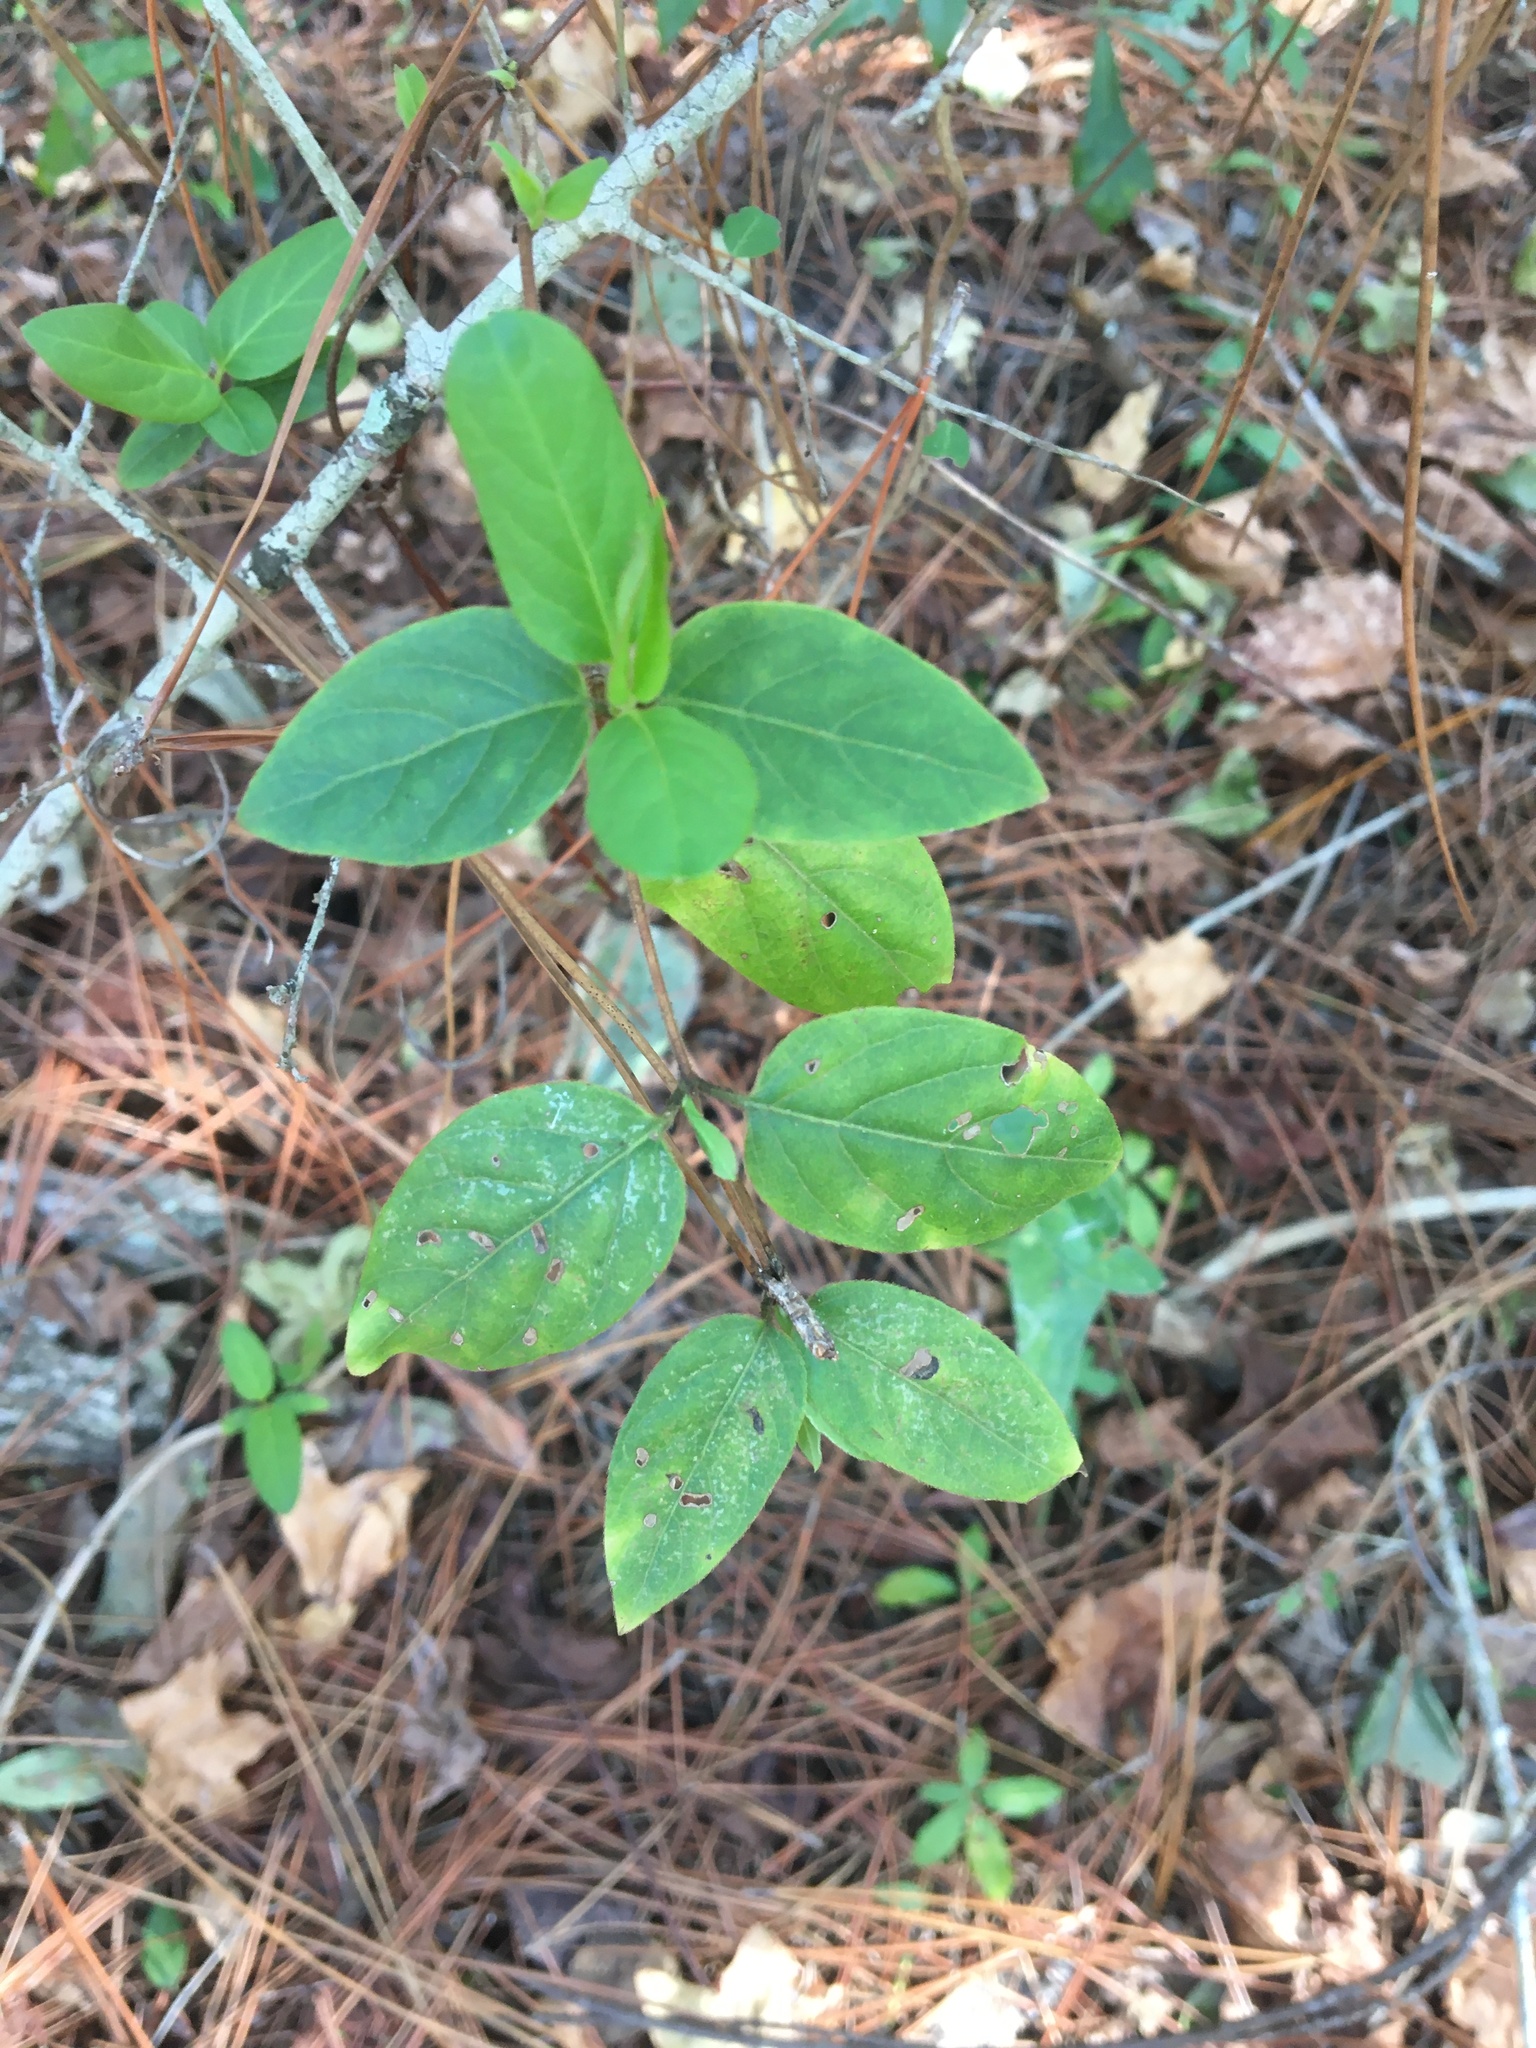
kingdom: Plantae
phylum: Tracheophyta
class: Magnoliopsida
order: Dipsacales
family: Caprifoliaceae
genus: Lonicera
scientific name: Lonicera japonica
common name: Japanese honeysuckle
